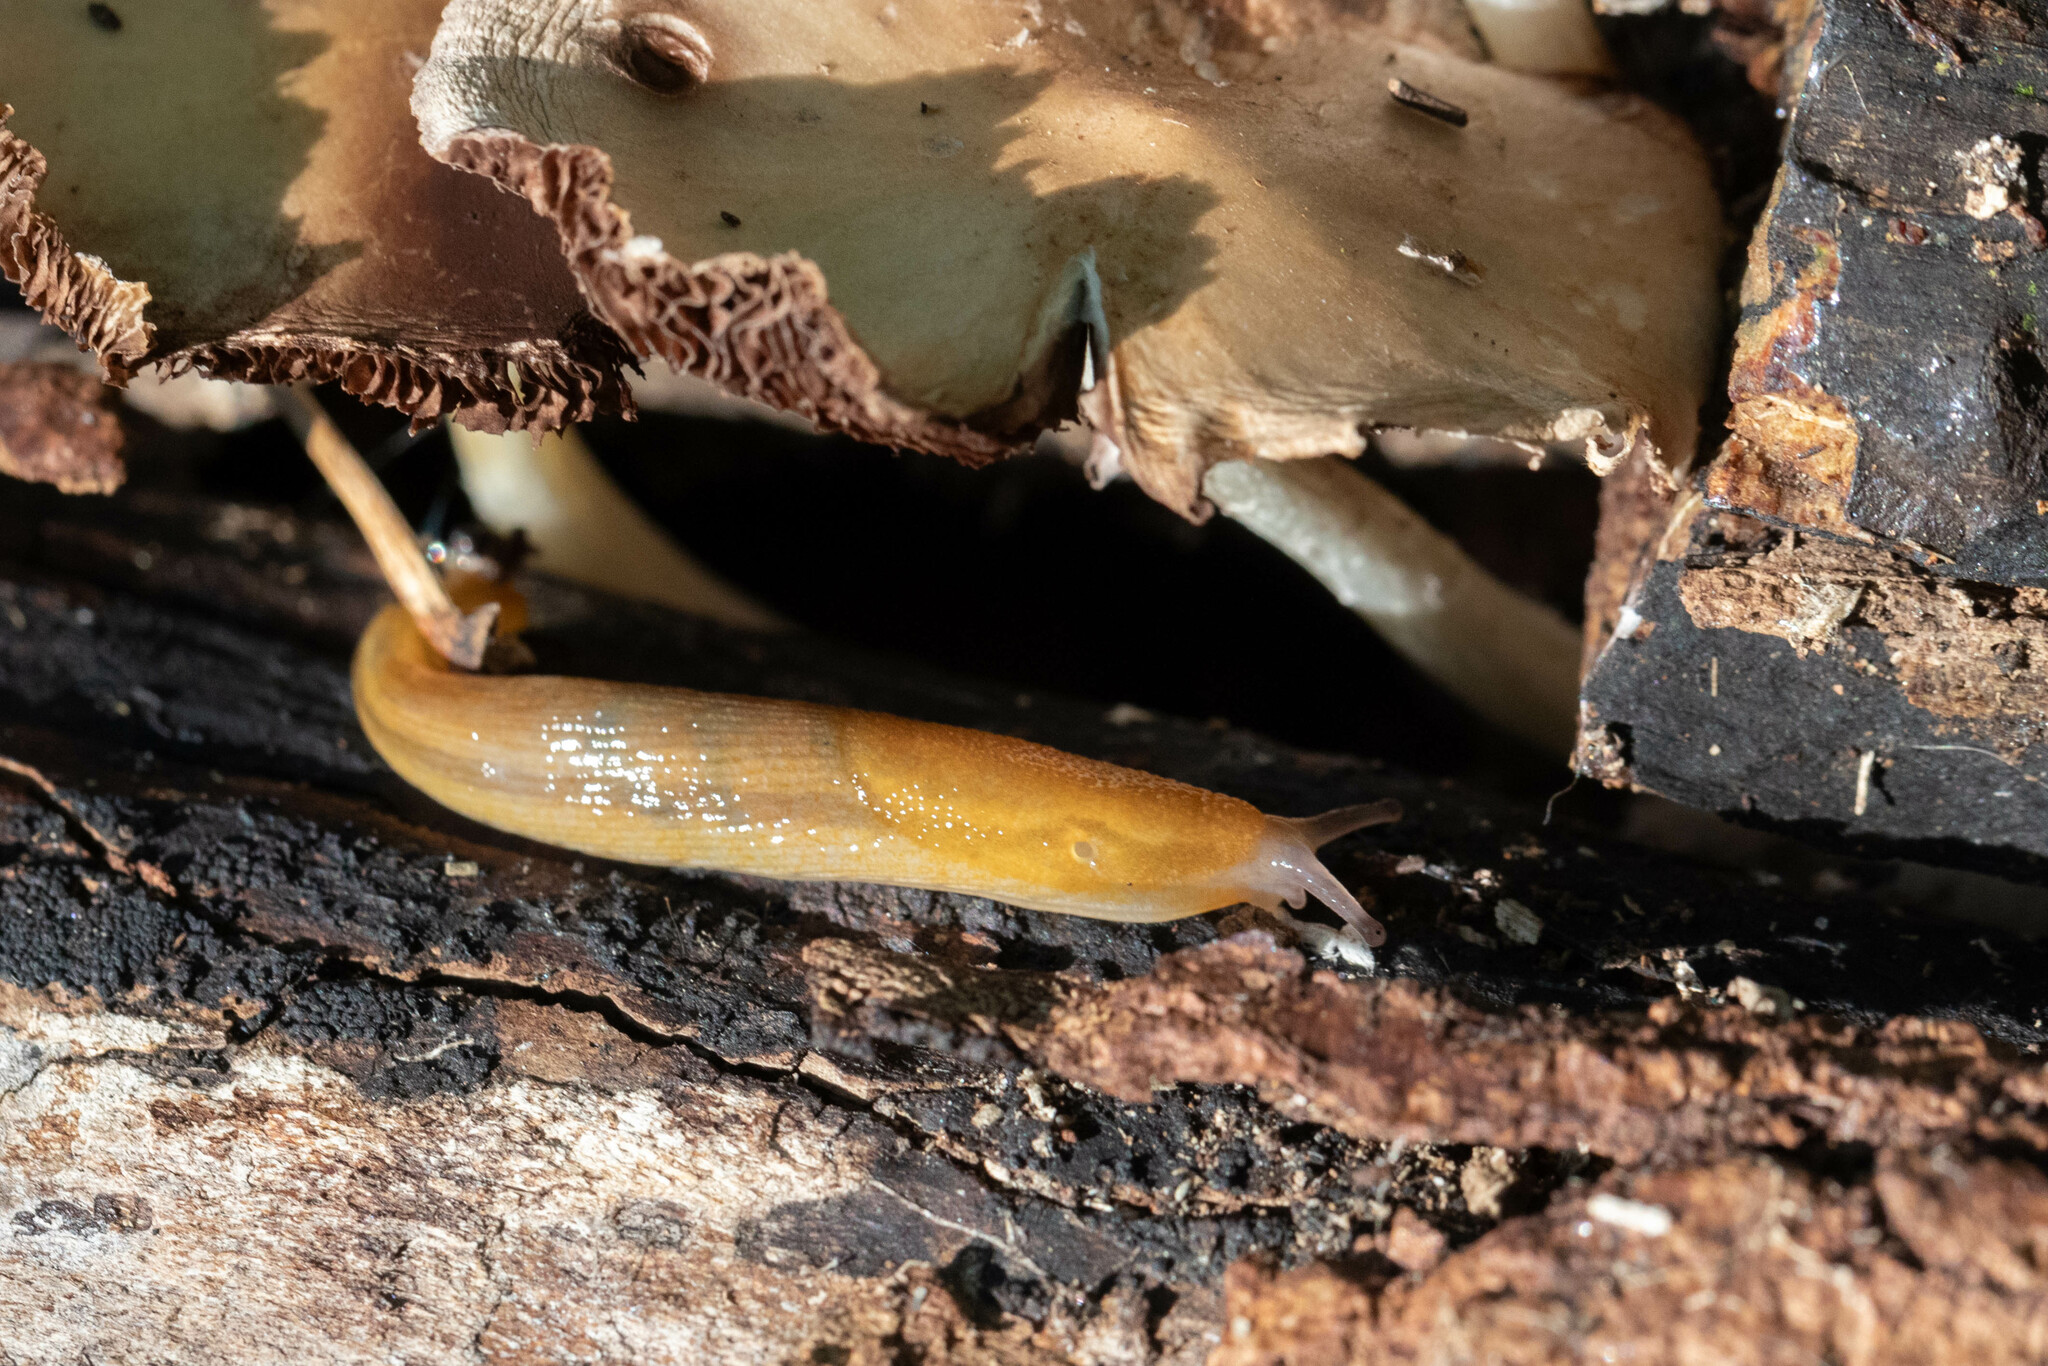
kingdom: Animalia
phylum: Mollusca
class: Gastropoda
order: Stylommatophora
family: Arionidae
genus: Arion
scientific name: Arion subfuscus
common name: Dusky arion
